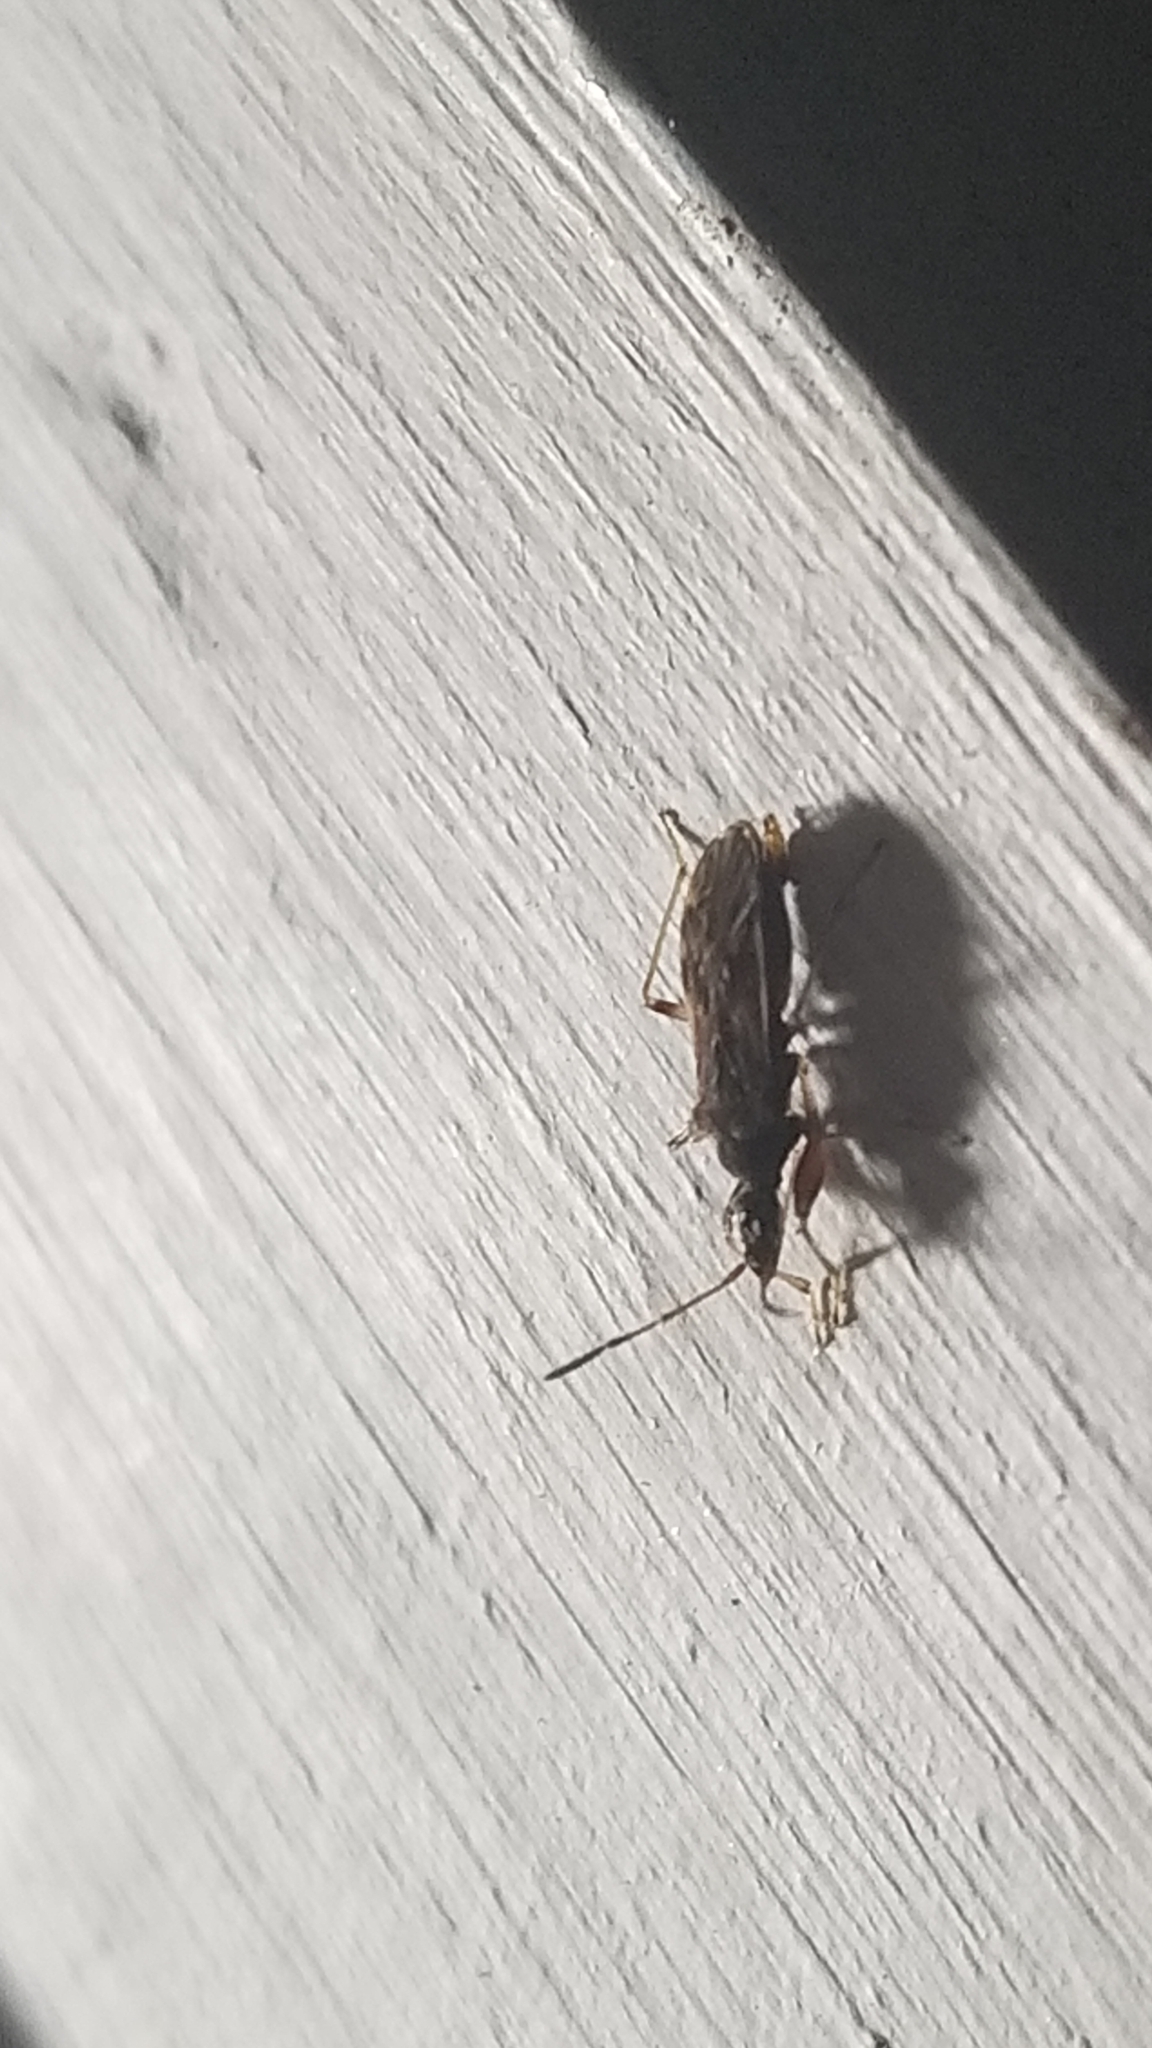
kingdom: Animalia
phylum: Arthropoda
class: Insecta
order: Hemiptera
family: Rhyparochromidae
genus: Heraeus
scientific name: Heraeus plebejus
